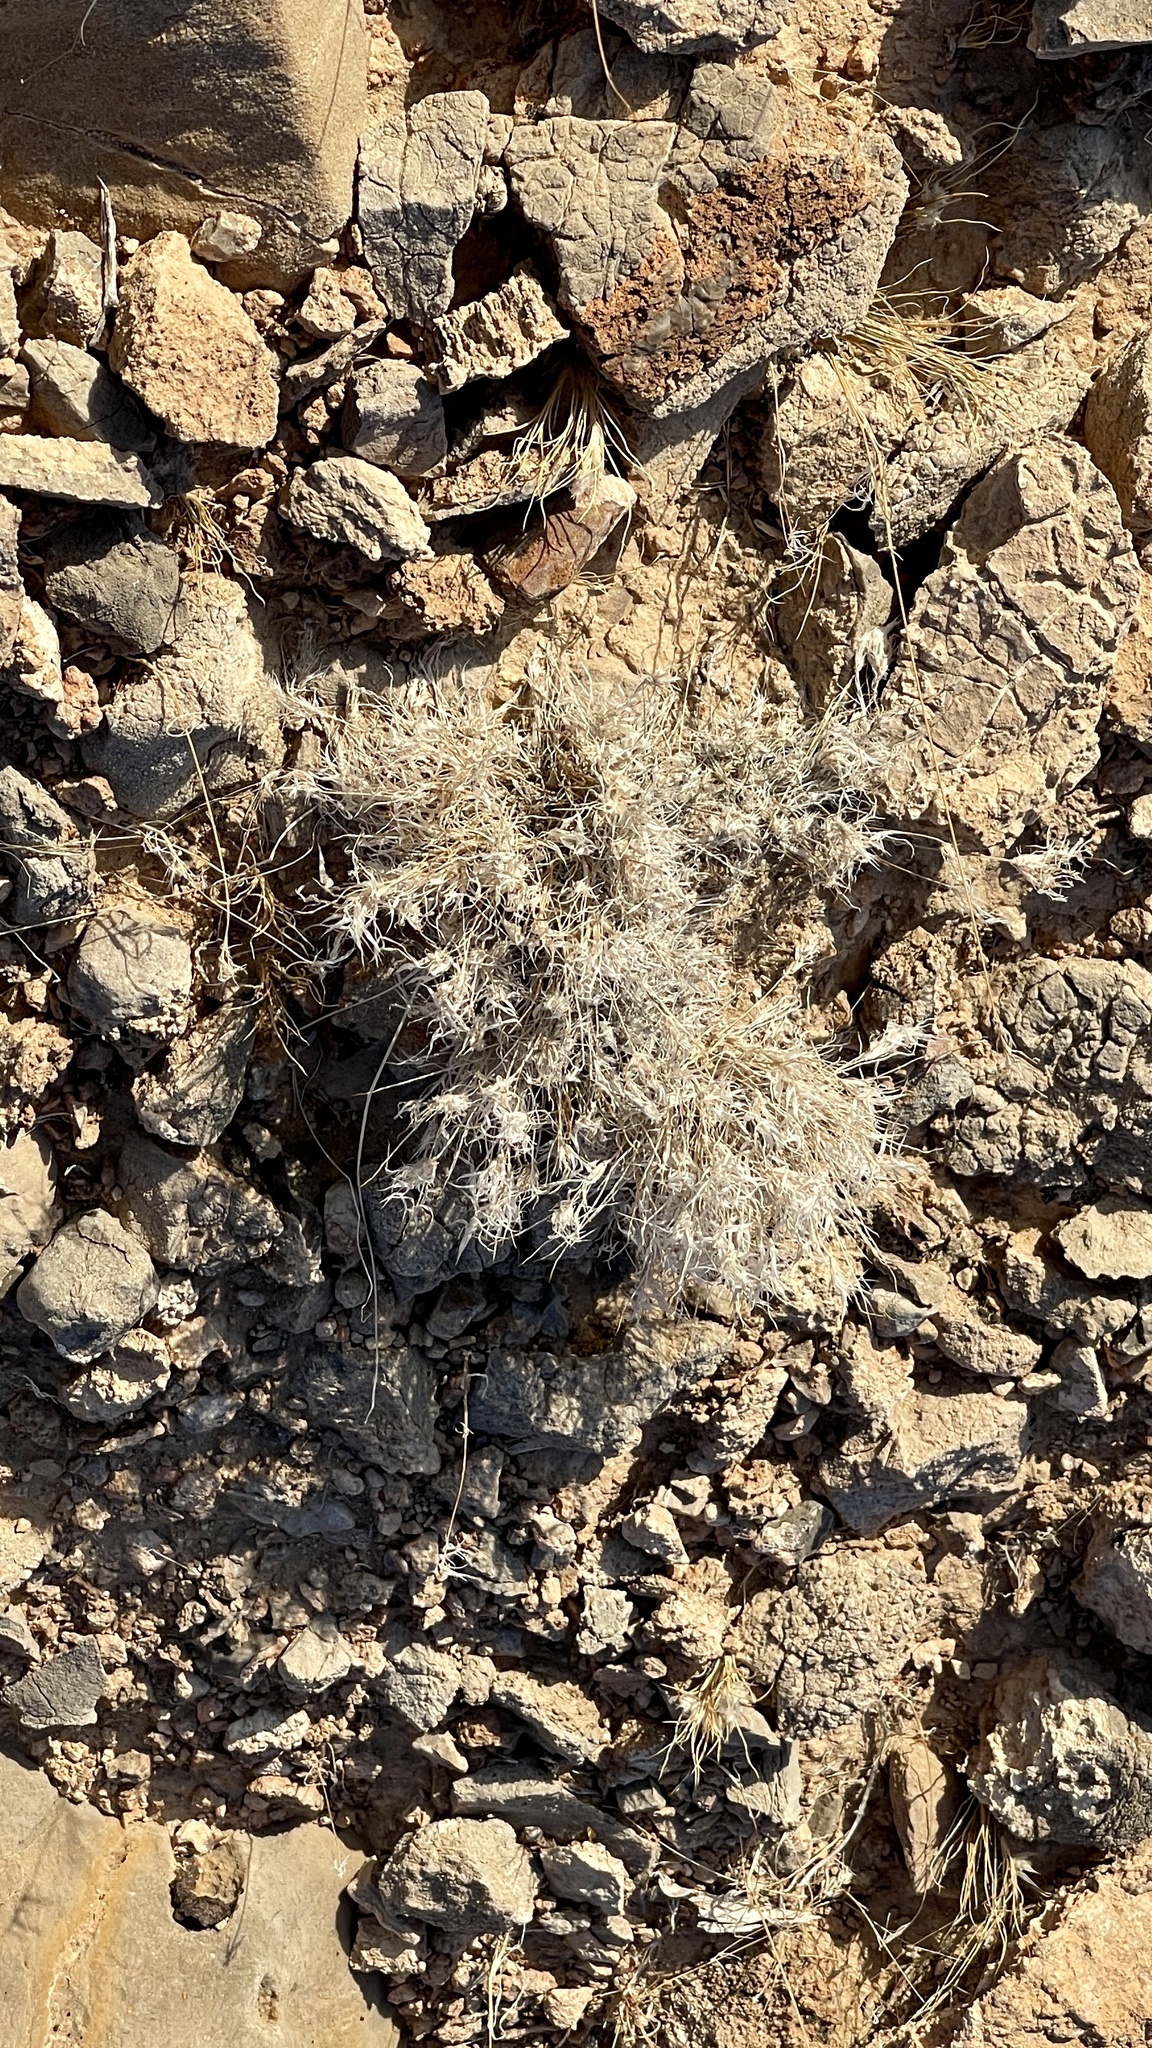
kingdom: Plantae
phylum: Tracheophyta
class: Liliopsida
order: Poales
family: Poaceae
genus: Dasyochloa
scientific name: Dasyochloa pulchella
